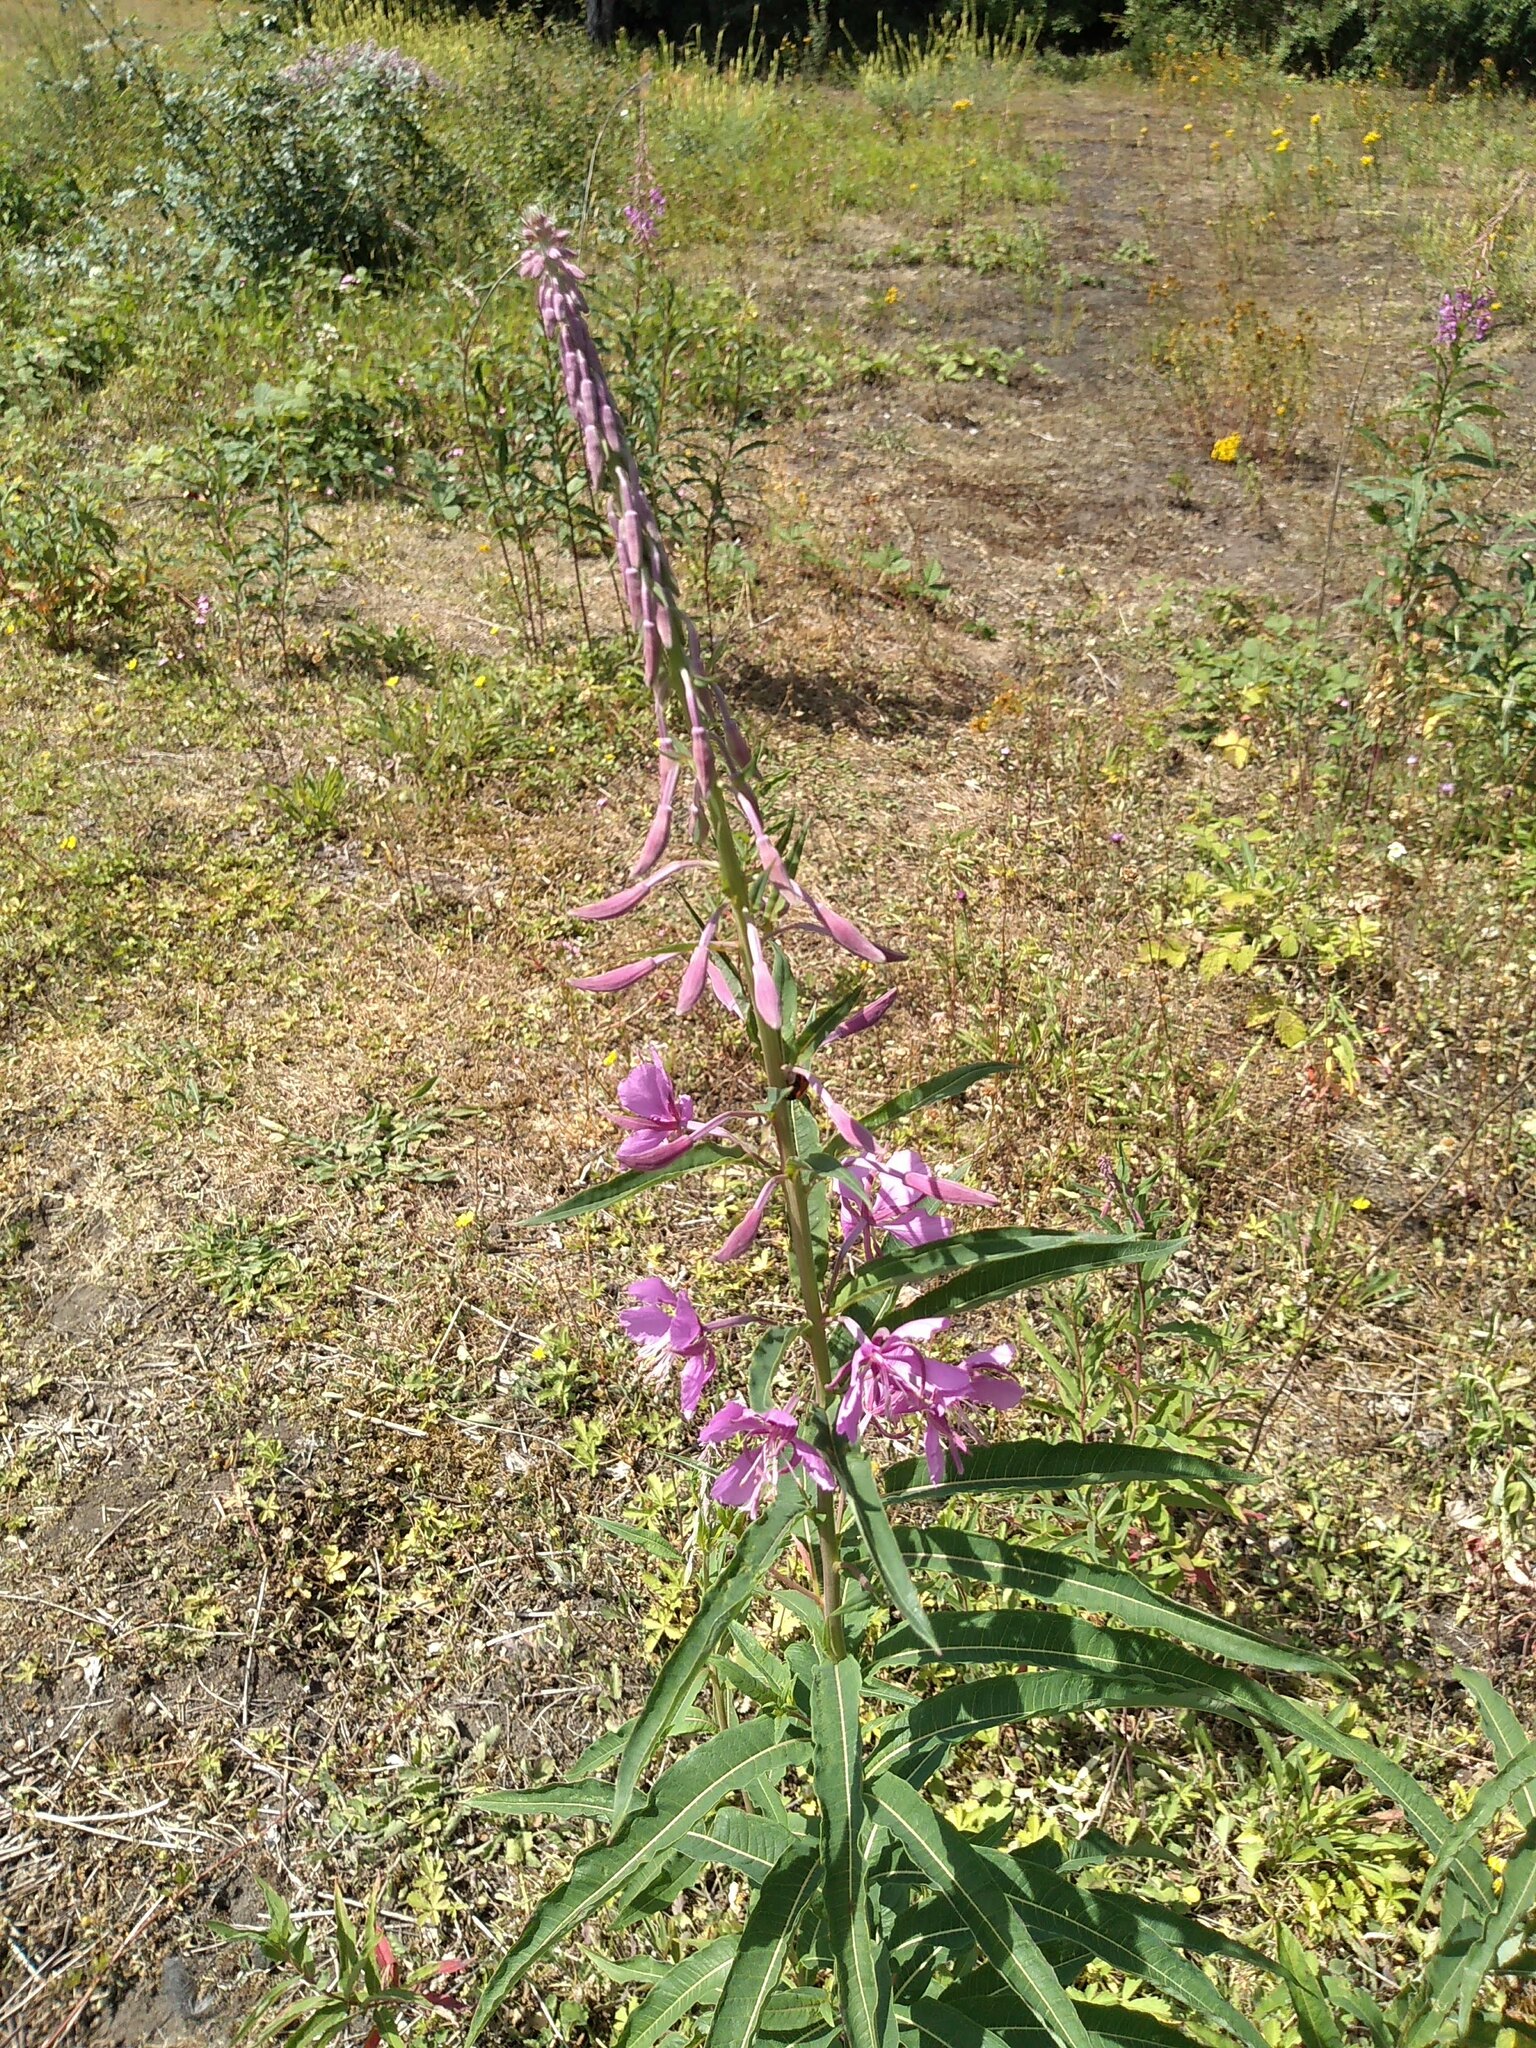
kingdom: Plantae
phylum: Tracheophyta
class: Magnoliopsida
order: Myrtales
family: Onagraceae
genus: Chamaenerion
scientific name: Chamaenerion angustifolium
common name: Fireweed
